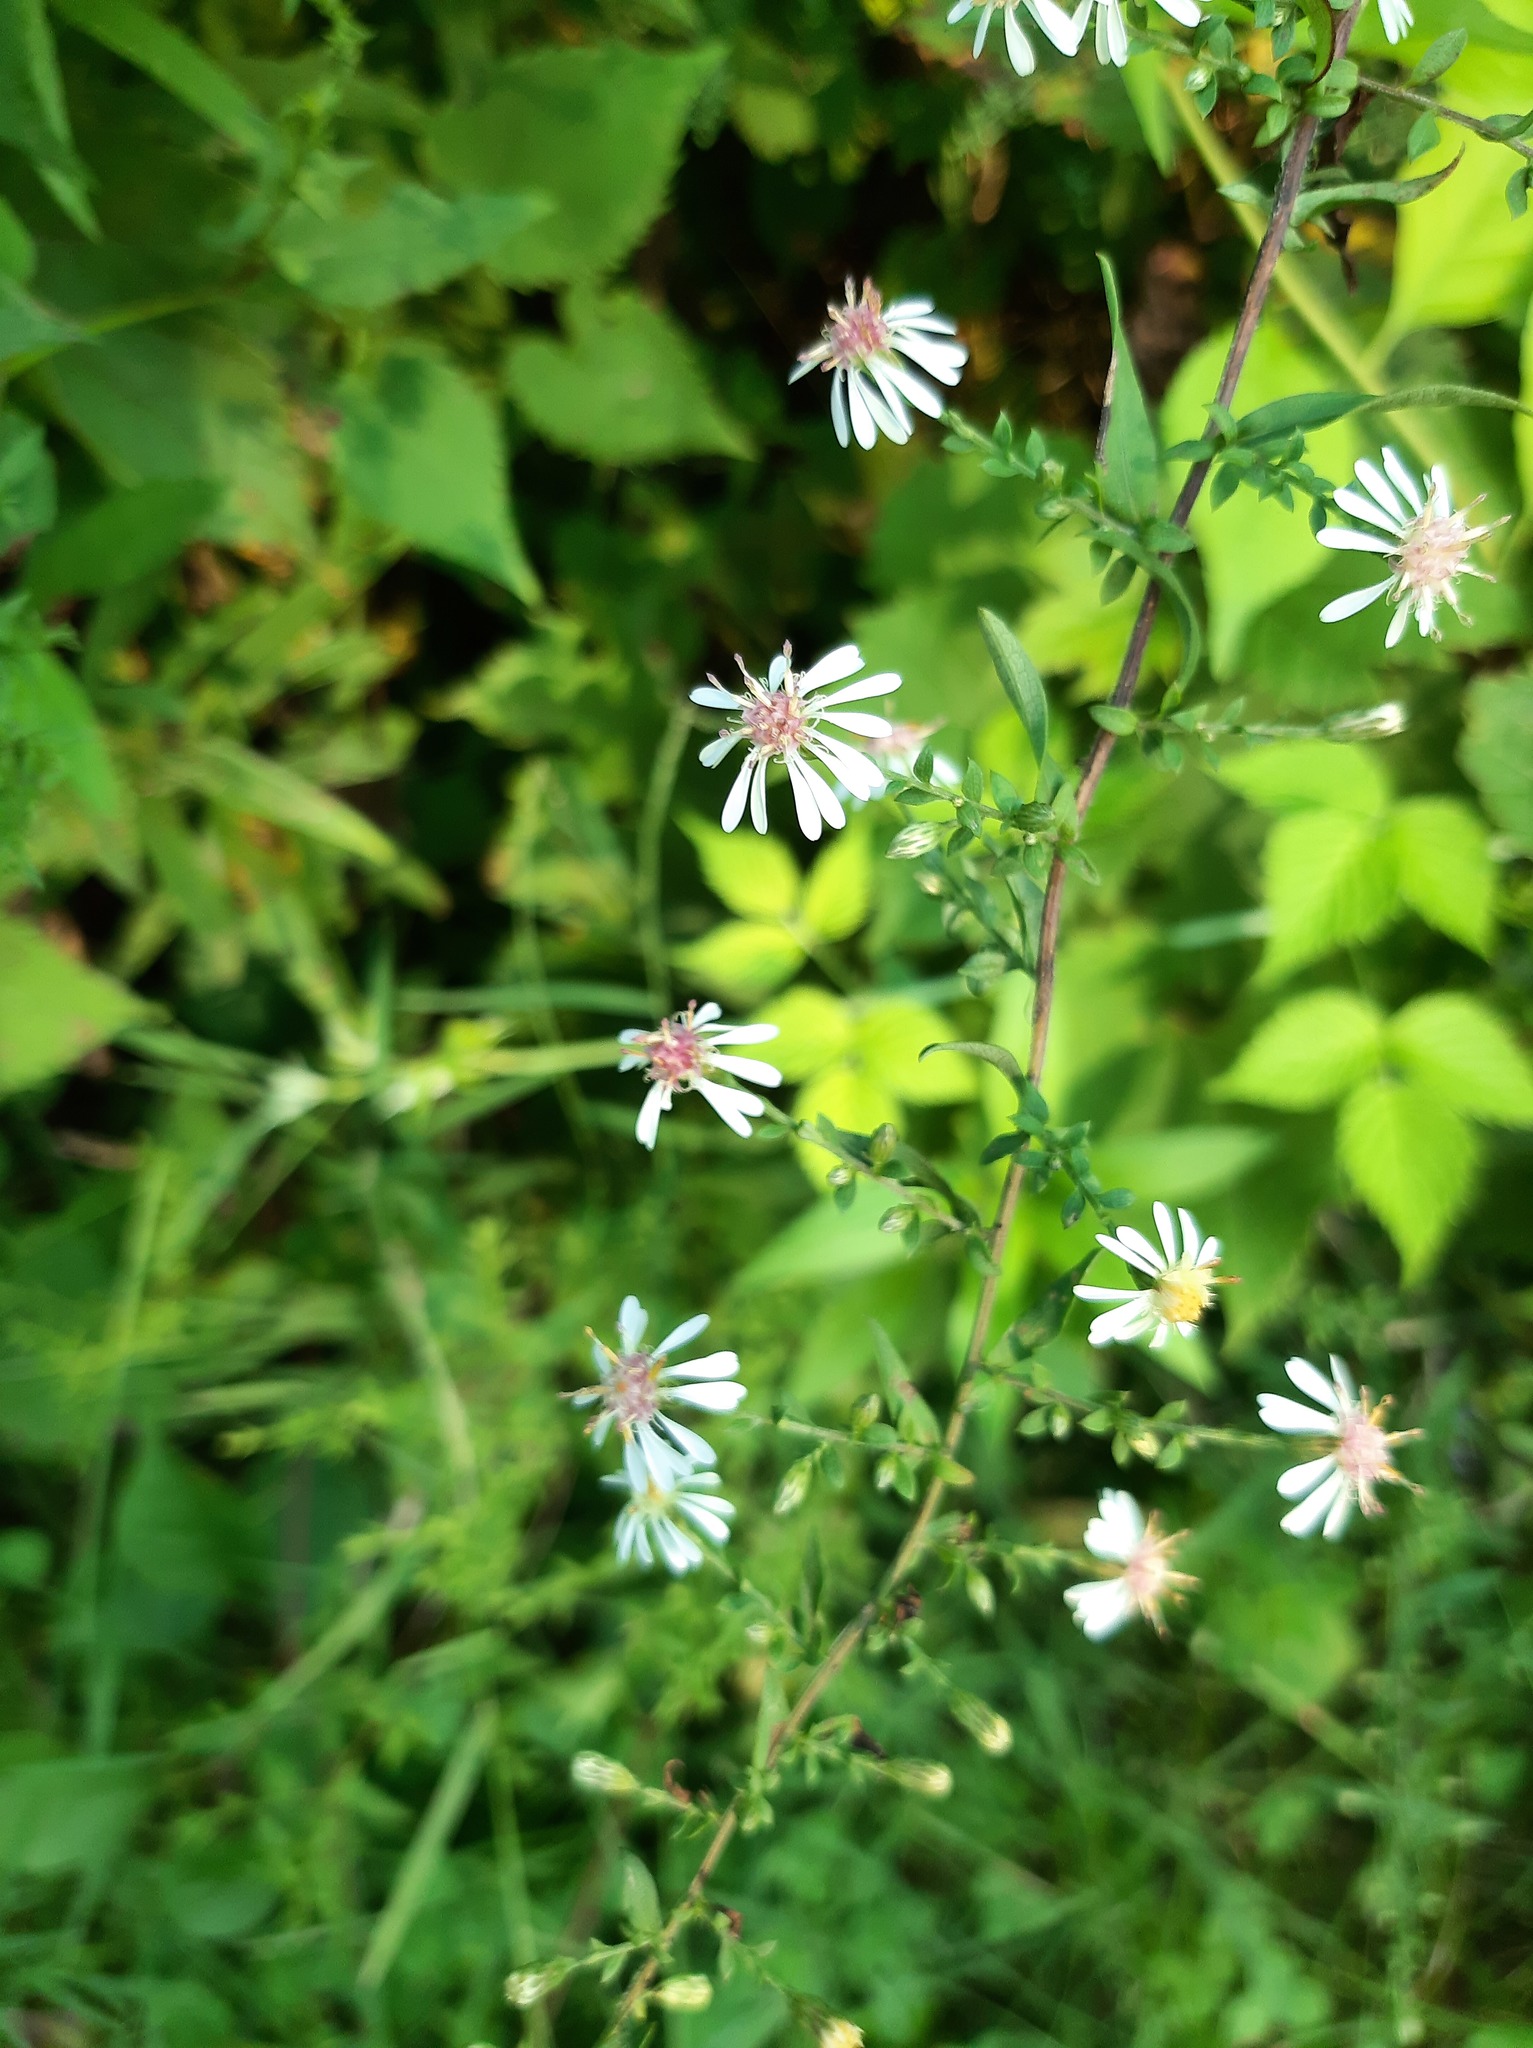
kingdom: Plantae
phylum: Tracheophyta
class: Magnoliopsida
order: Asterales
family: Asteraceae
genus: Symphyotrichum
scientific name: Symphyotrichum lateriflorum
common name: Calico aster
